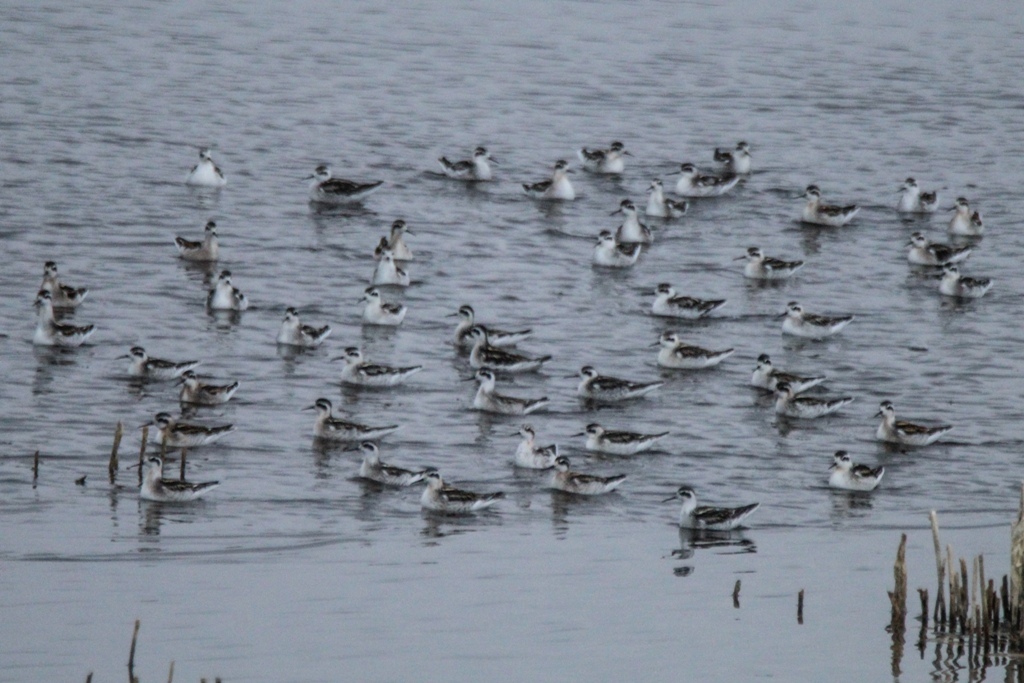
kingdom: Animalia
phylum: Chordata
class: Aves
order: Charadriiformes
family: Scolopacidae
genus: Phalaropus
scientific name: Phalaropus lobatus
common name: Red-necked phalarope
